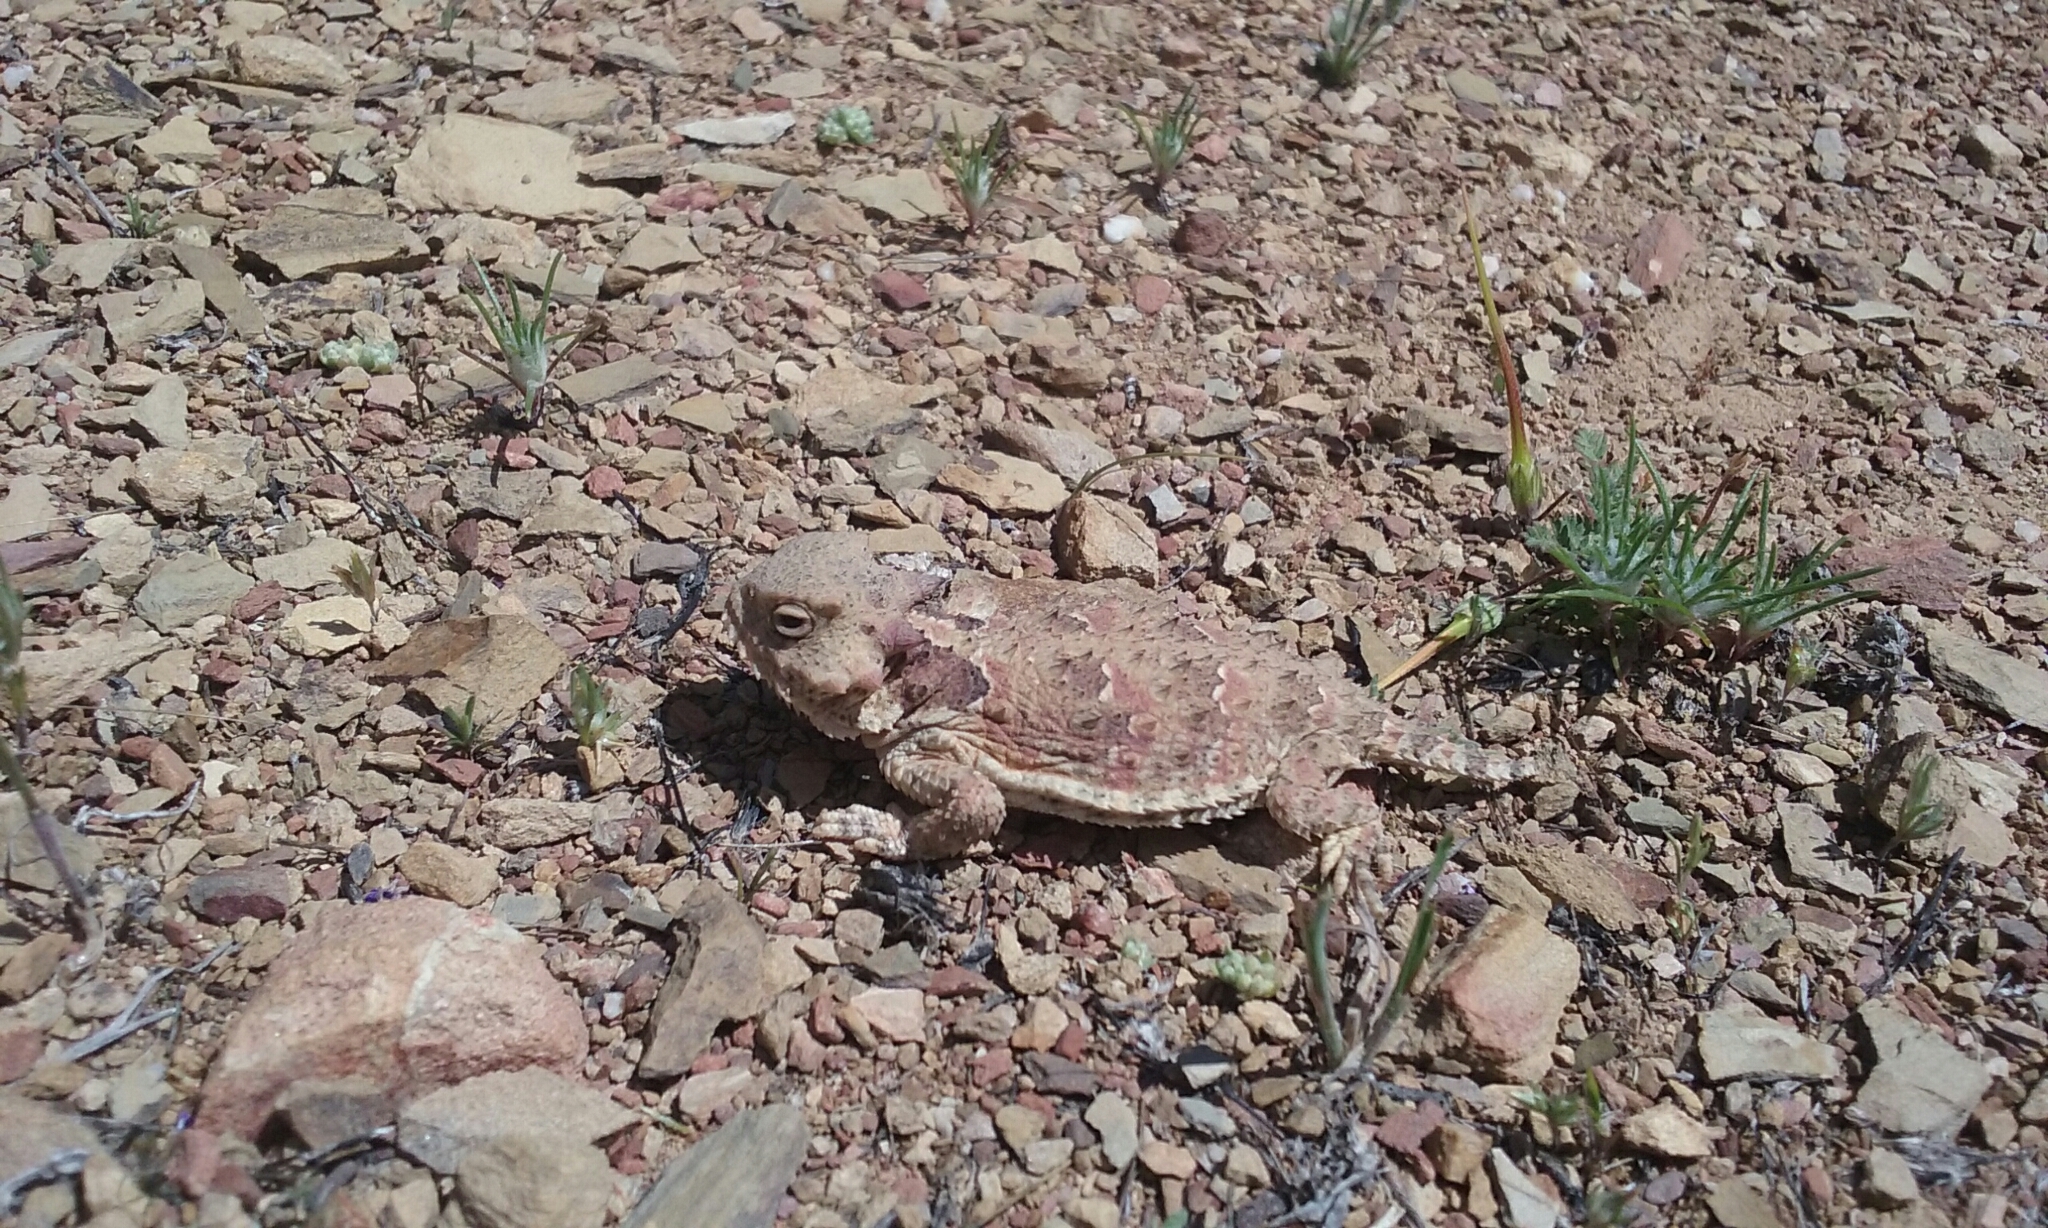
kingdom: Animalia
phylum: Chordata
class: Squamata
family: Phrynosomatidae
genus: Phrynosoma
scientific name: Phrynosoma blainvillii
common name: San diego horned lizard
